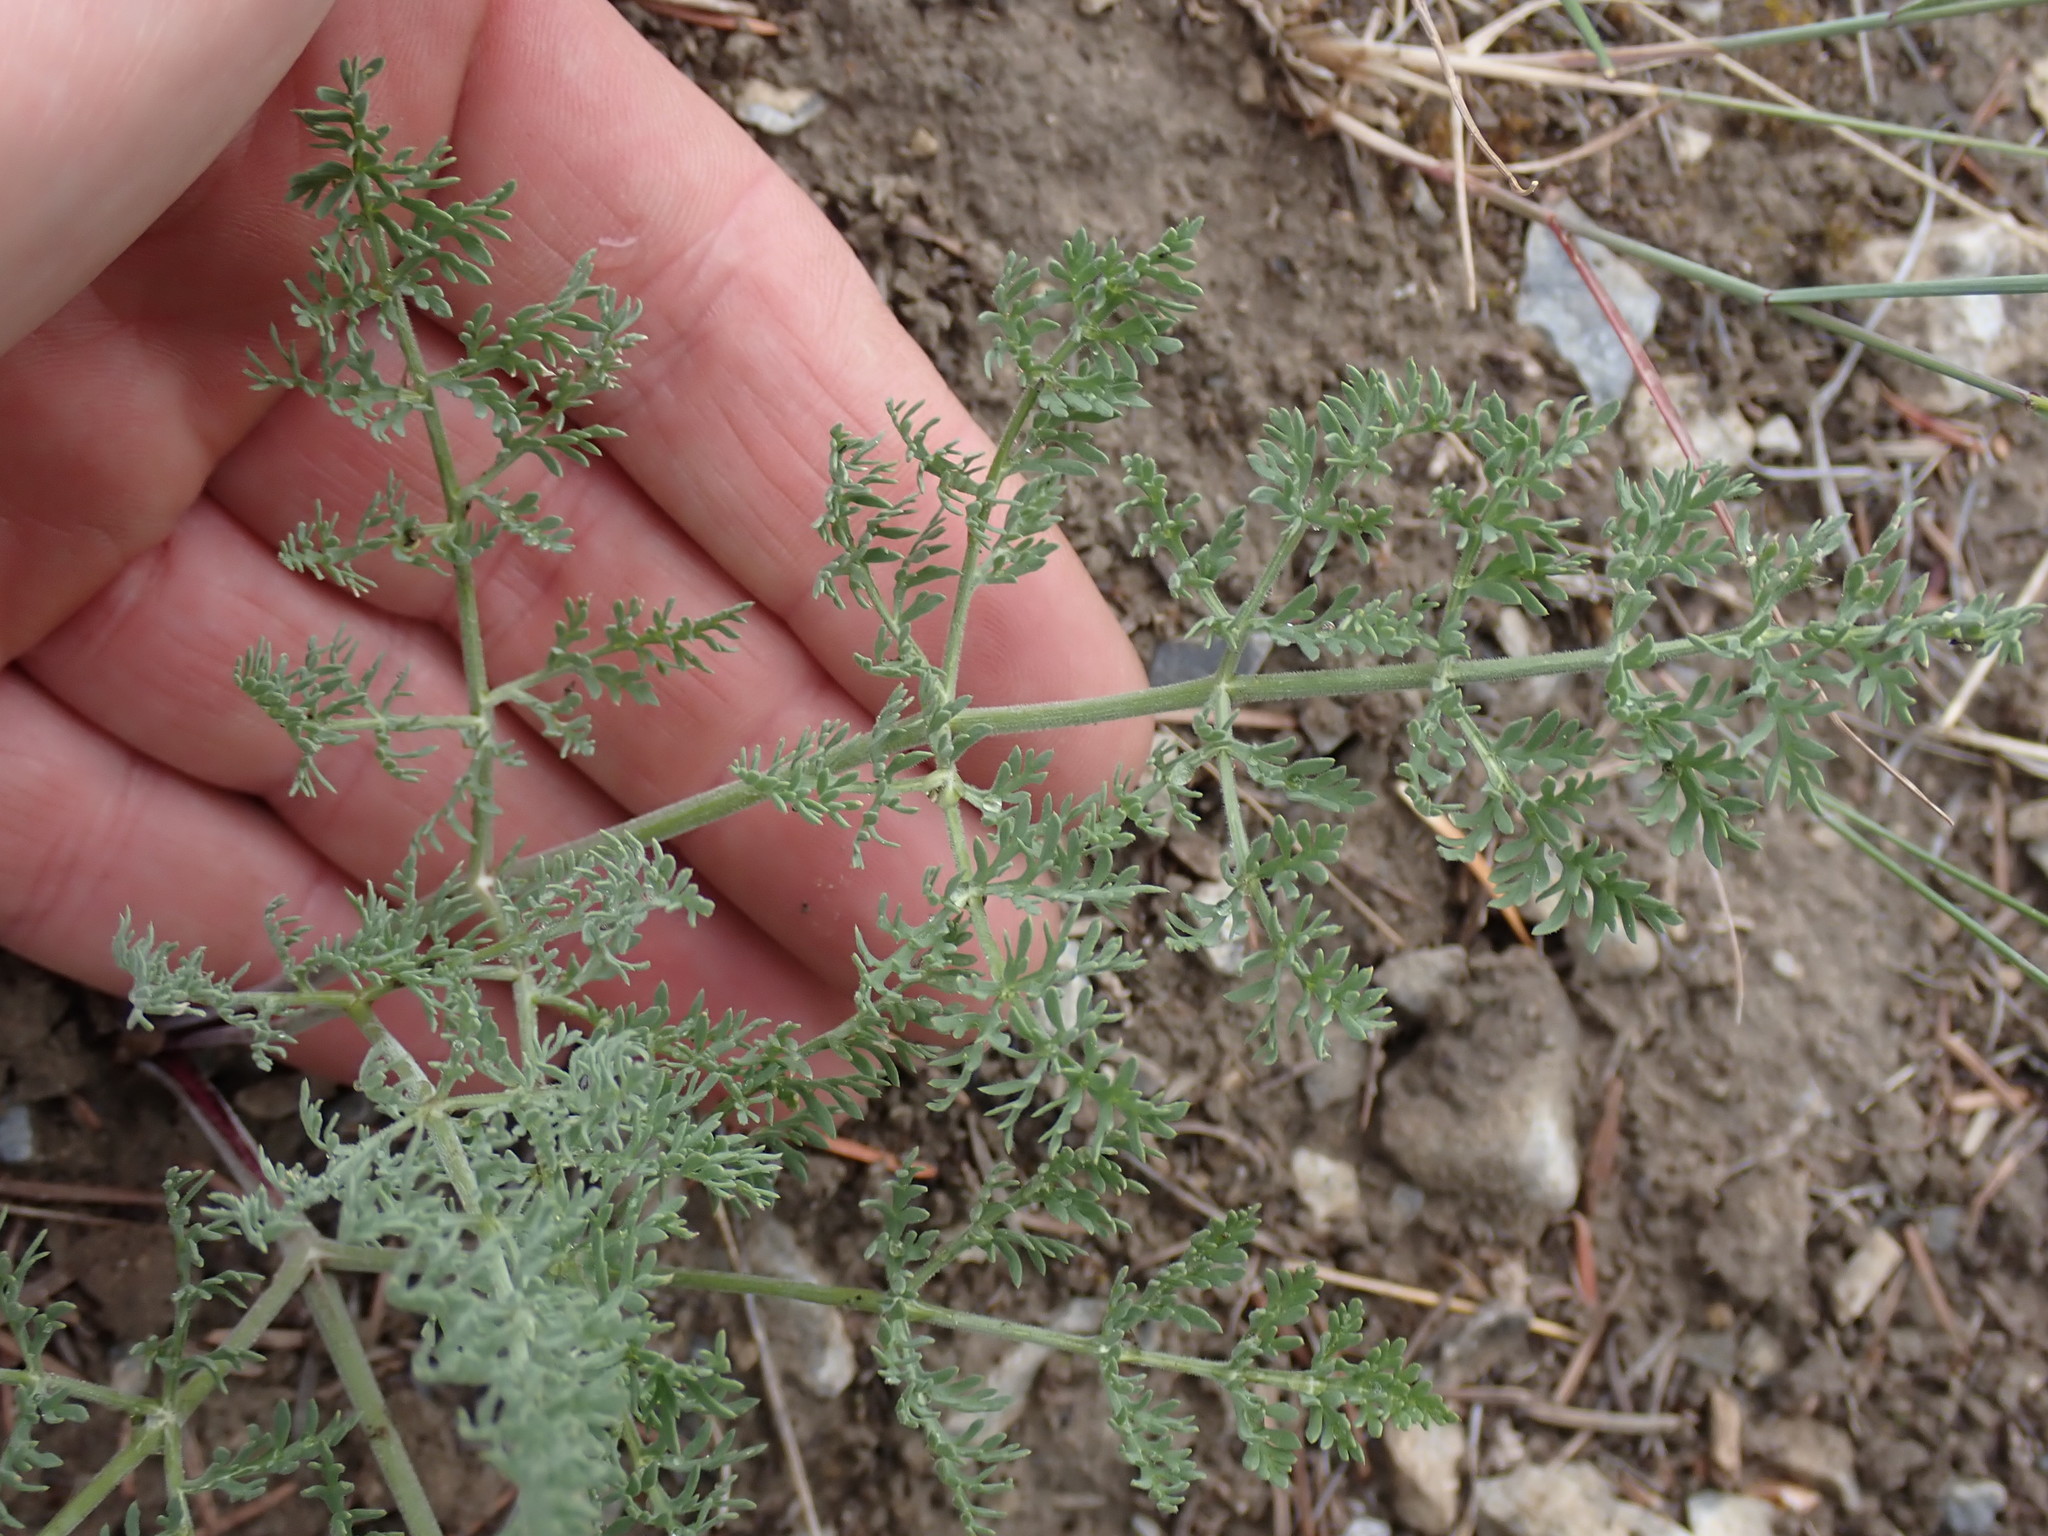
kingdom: Plantae
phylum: Tracheophyta
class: Magnoliopsida
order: Apiales
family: Apiaceae
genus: Lomatium
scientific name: Lomatium macrocarpum
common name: Big-seed biscuitroot
